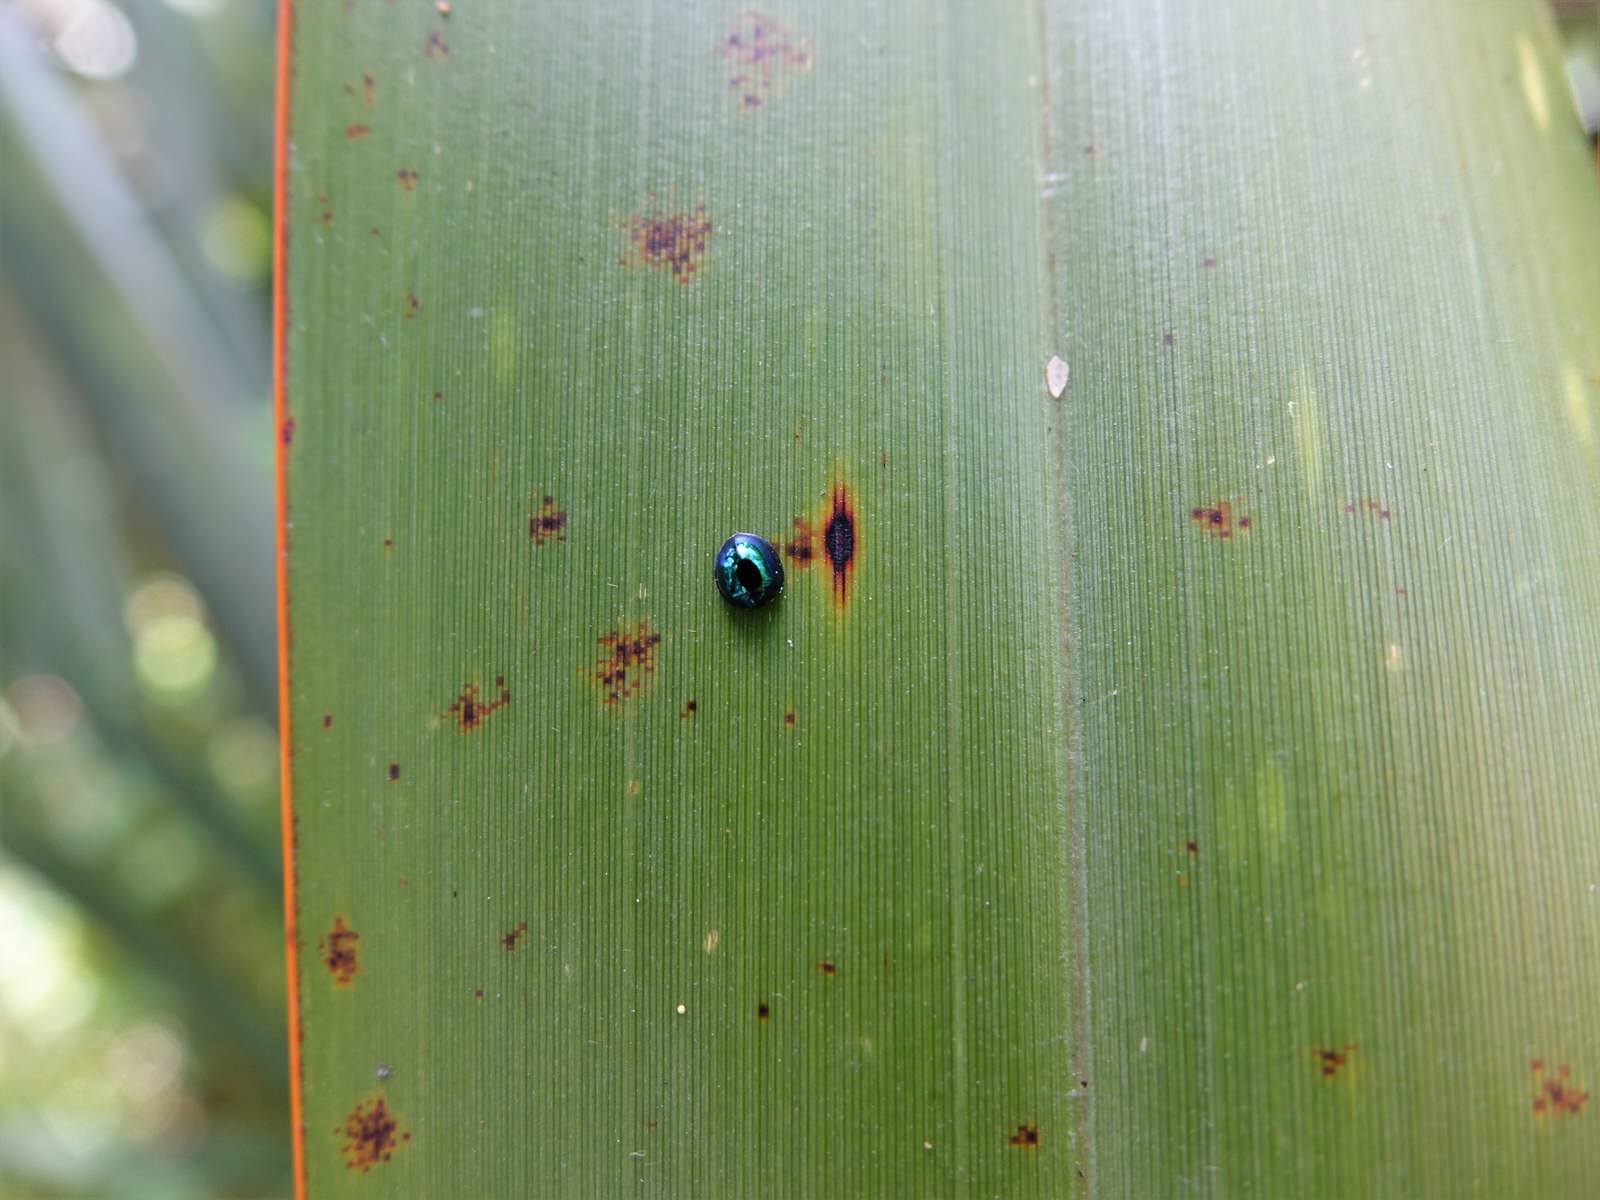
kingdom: Animalia
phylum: Arthropoda
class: Insecta
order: Coleoptera
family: Coccinellidae
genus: Halmus
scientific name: Halmus chalybeus
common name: Steel blue ladybird beetle
